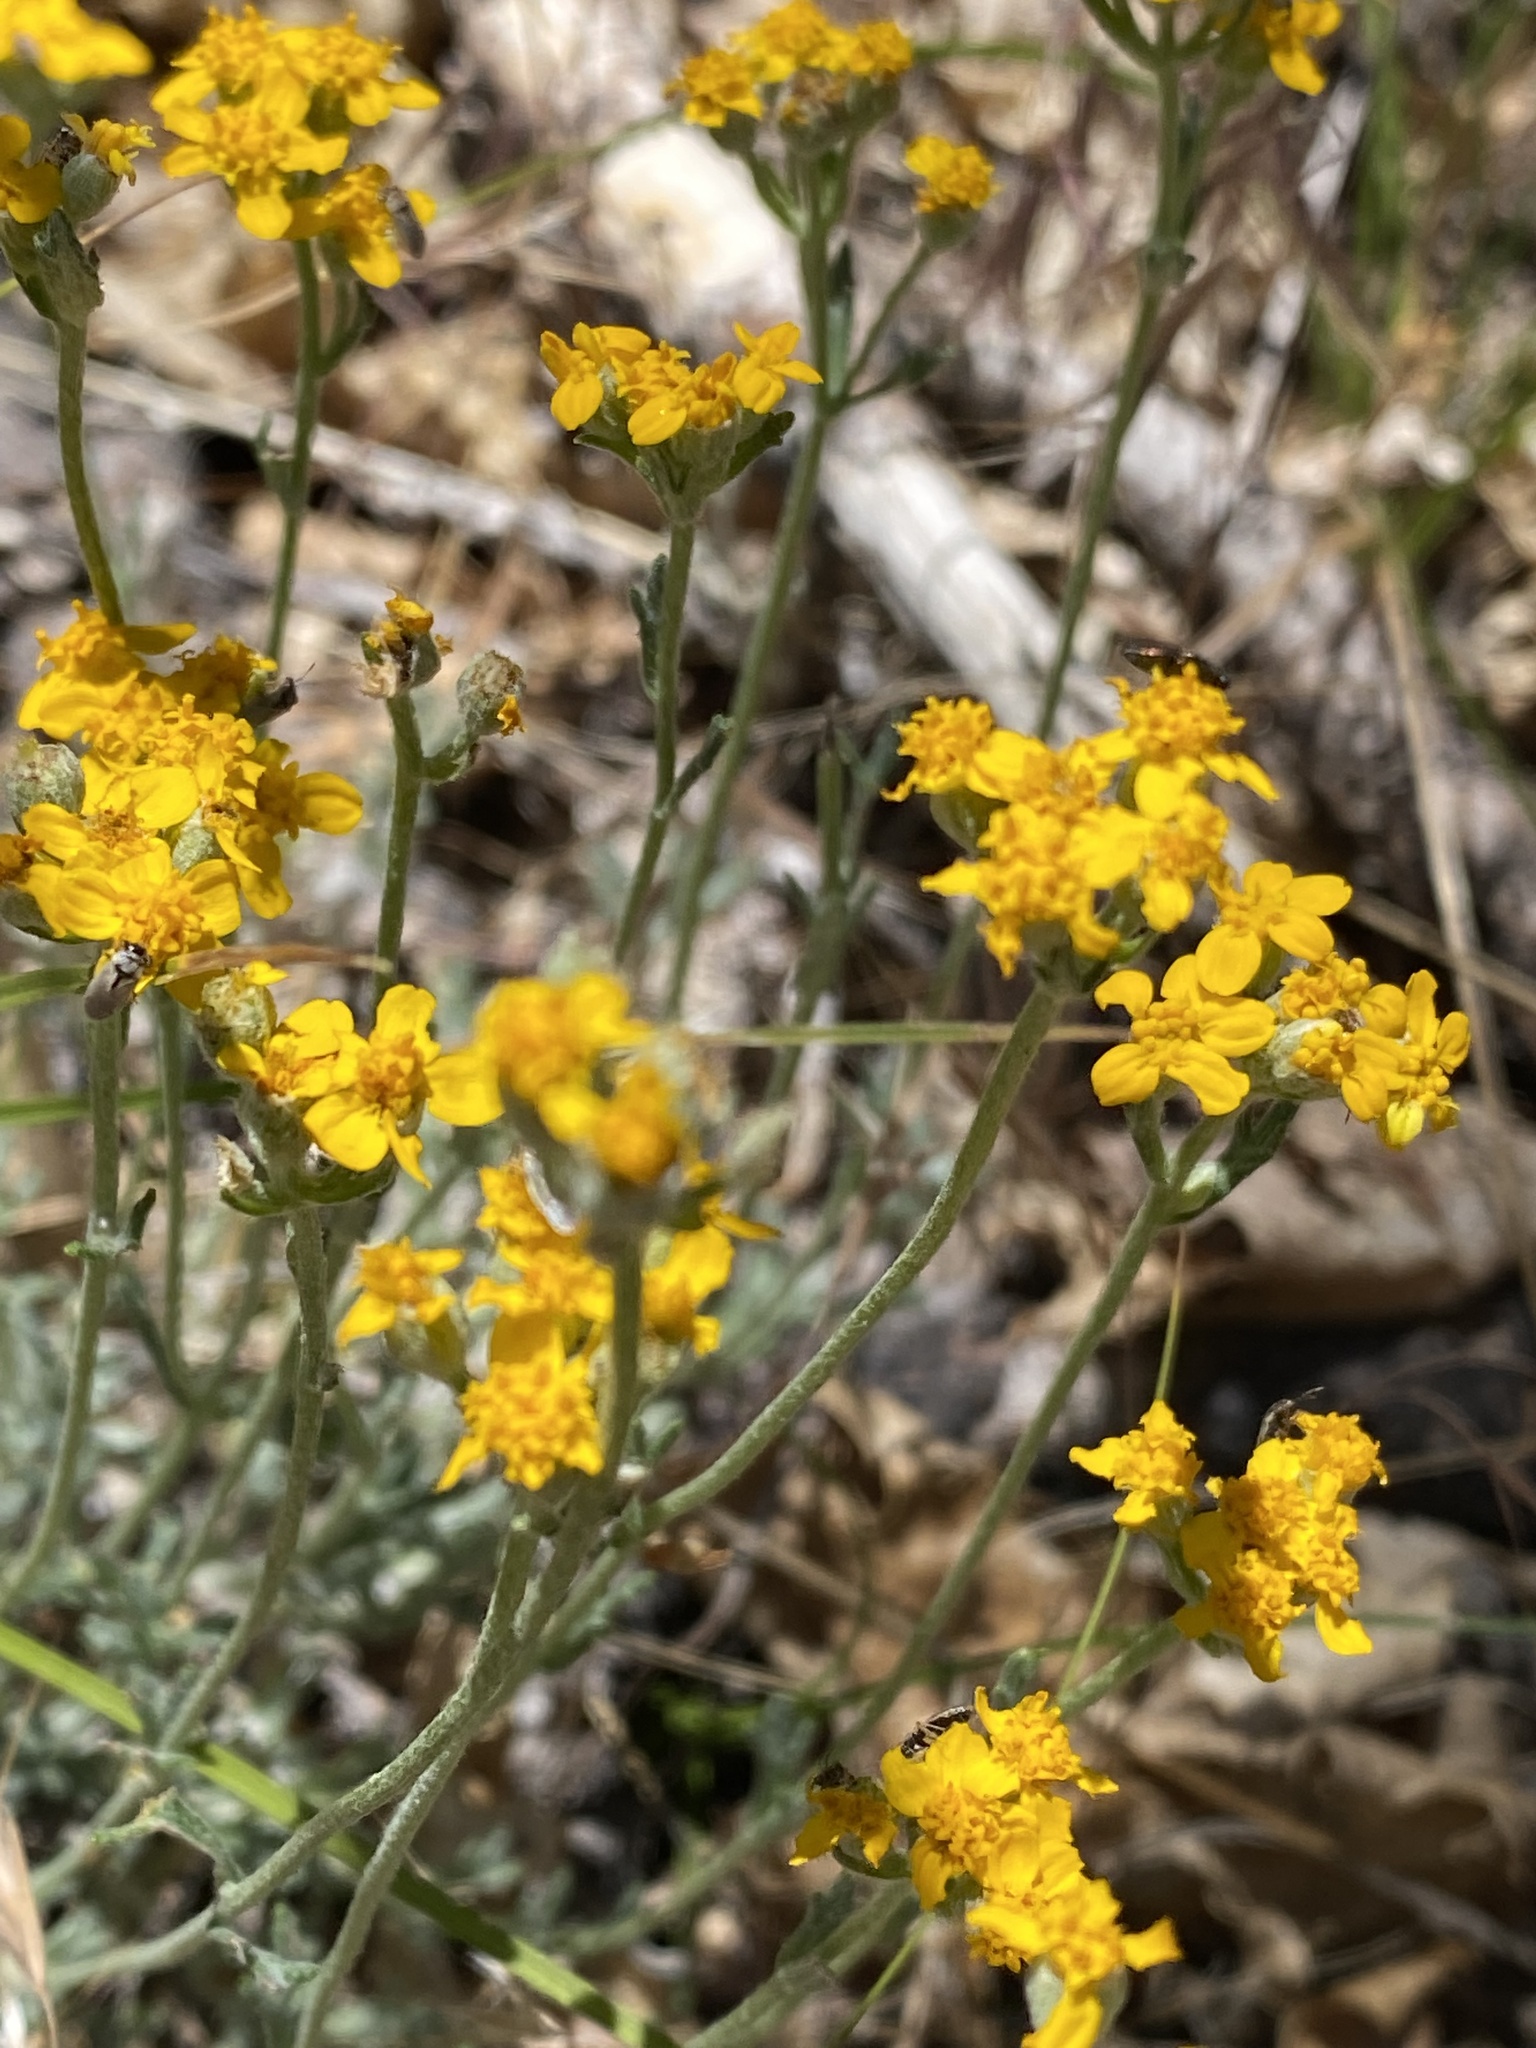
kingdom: Plantae
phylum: Tracheophyta
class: Magnoliopsida
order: Asterales
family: Asteraceae
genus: Eriophyllum
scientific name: Eriophyllum confertiflorum
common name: Golden-yarrow
